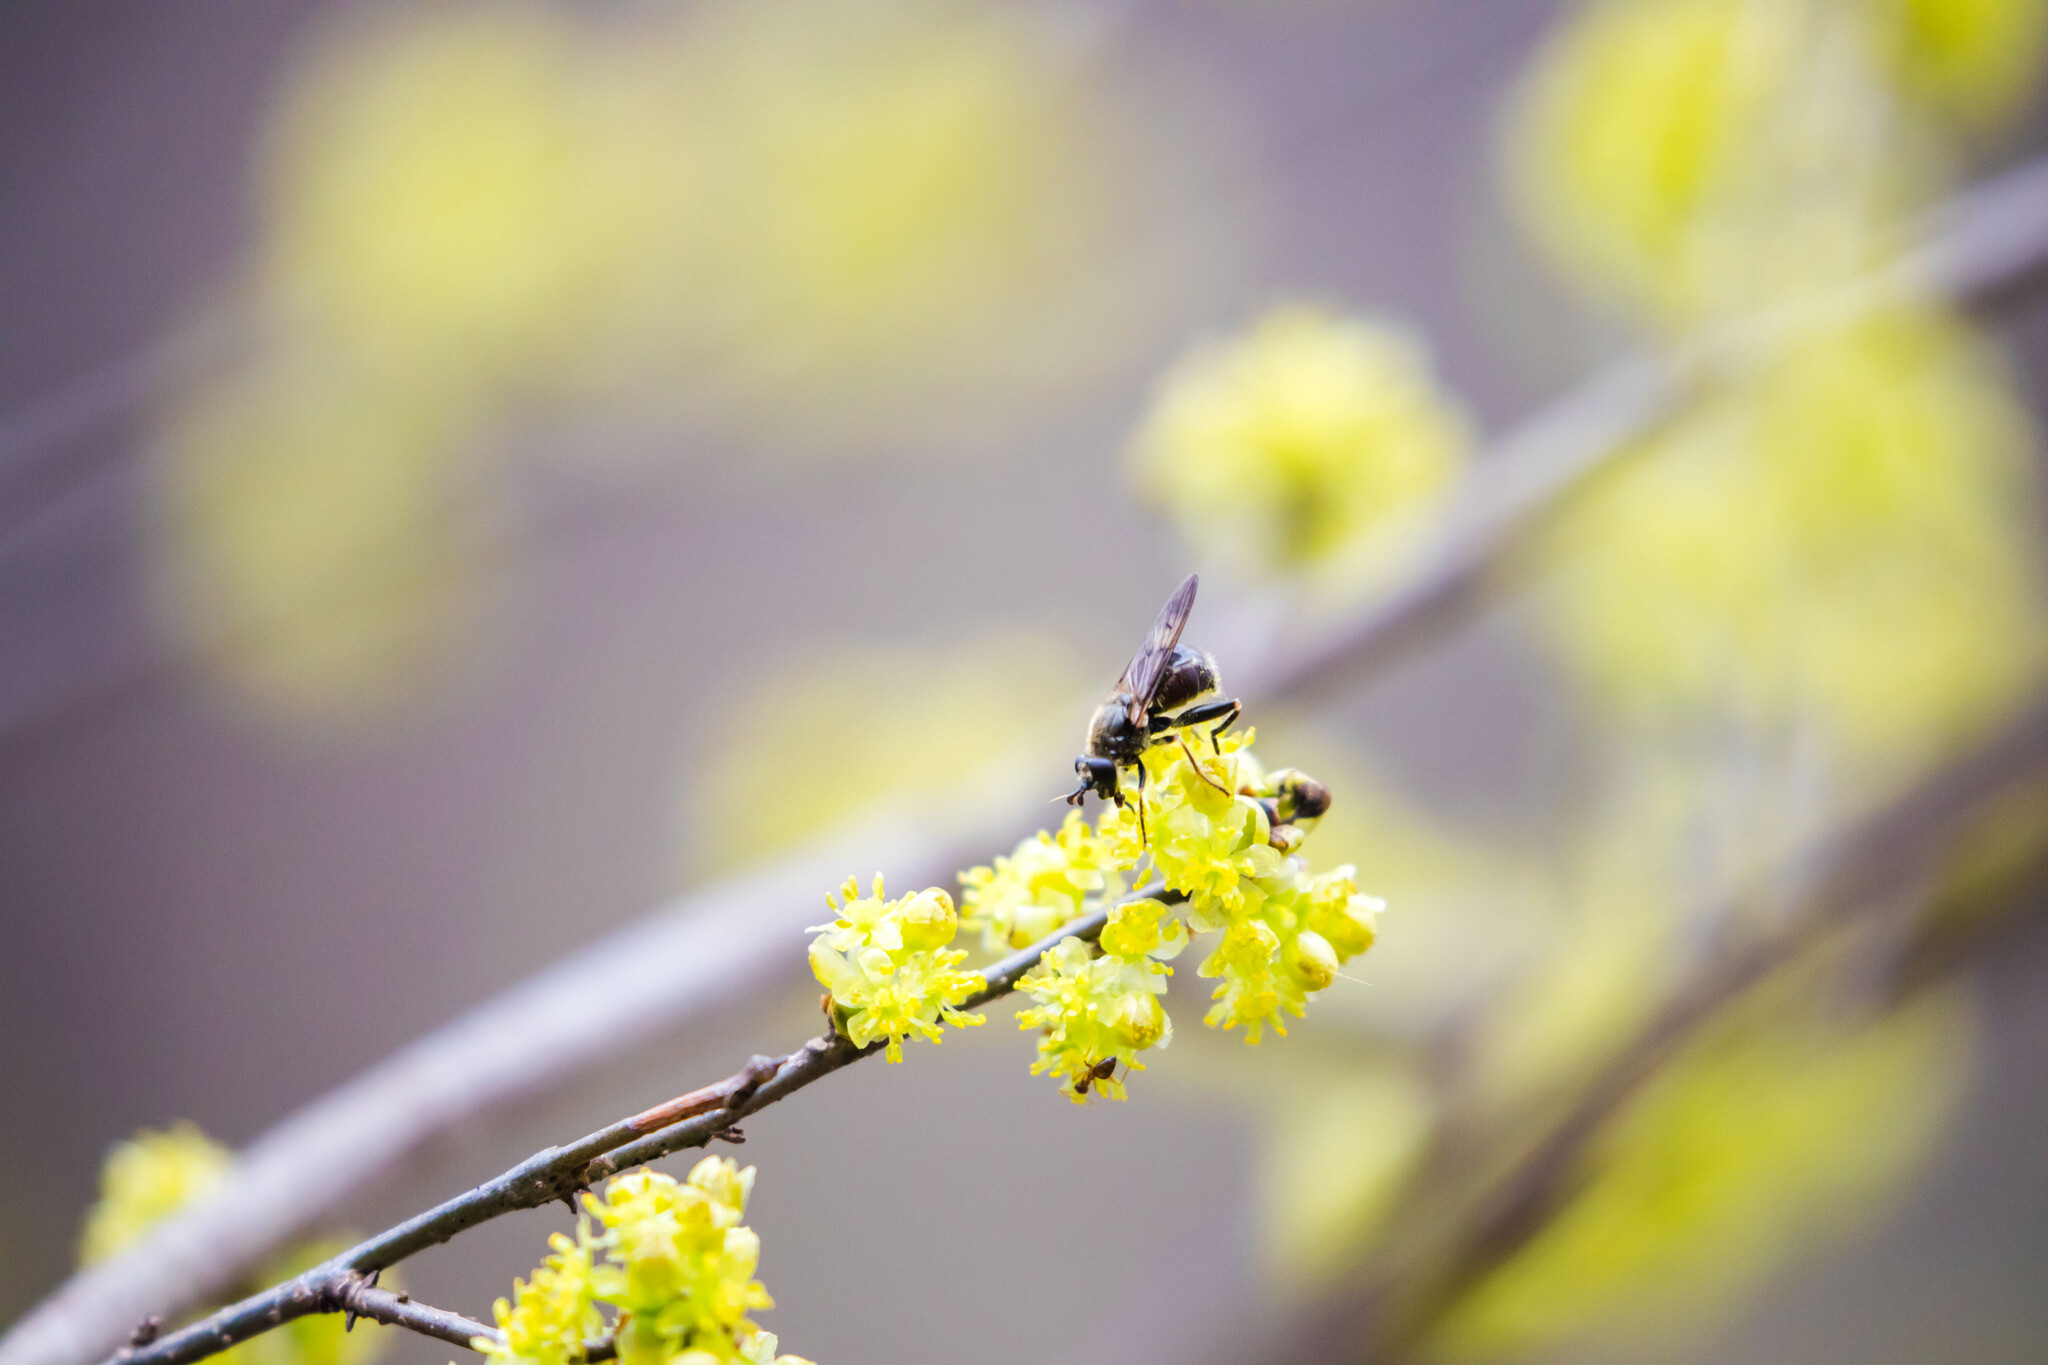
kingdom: Animalia
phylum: Arthropoda
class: Insecta
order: Diptera
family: Syrphidae
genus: Brachypalpus
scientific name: Brachypalpus oarus
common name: Eastern catkin fly
